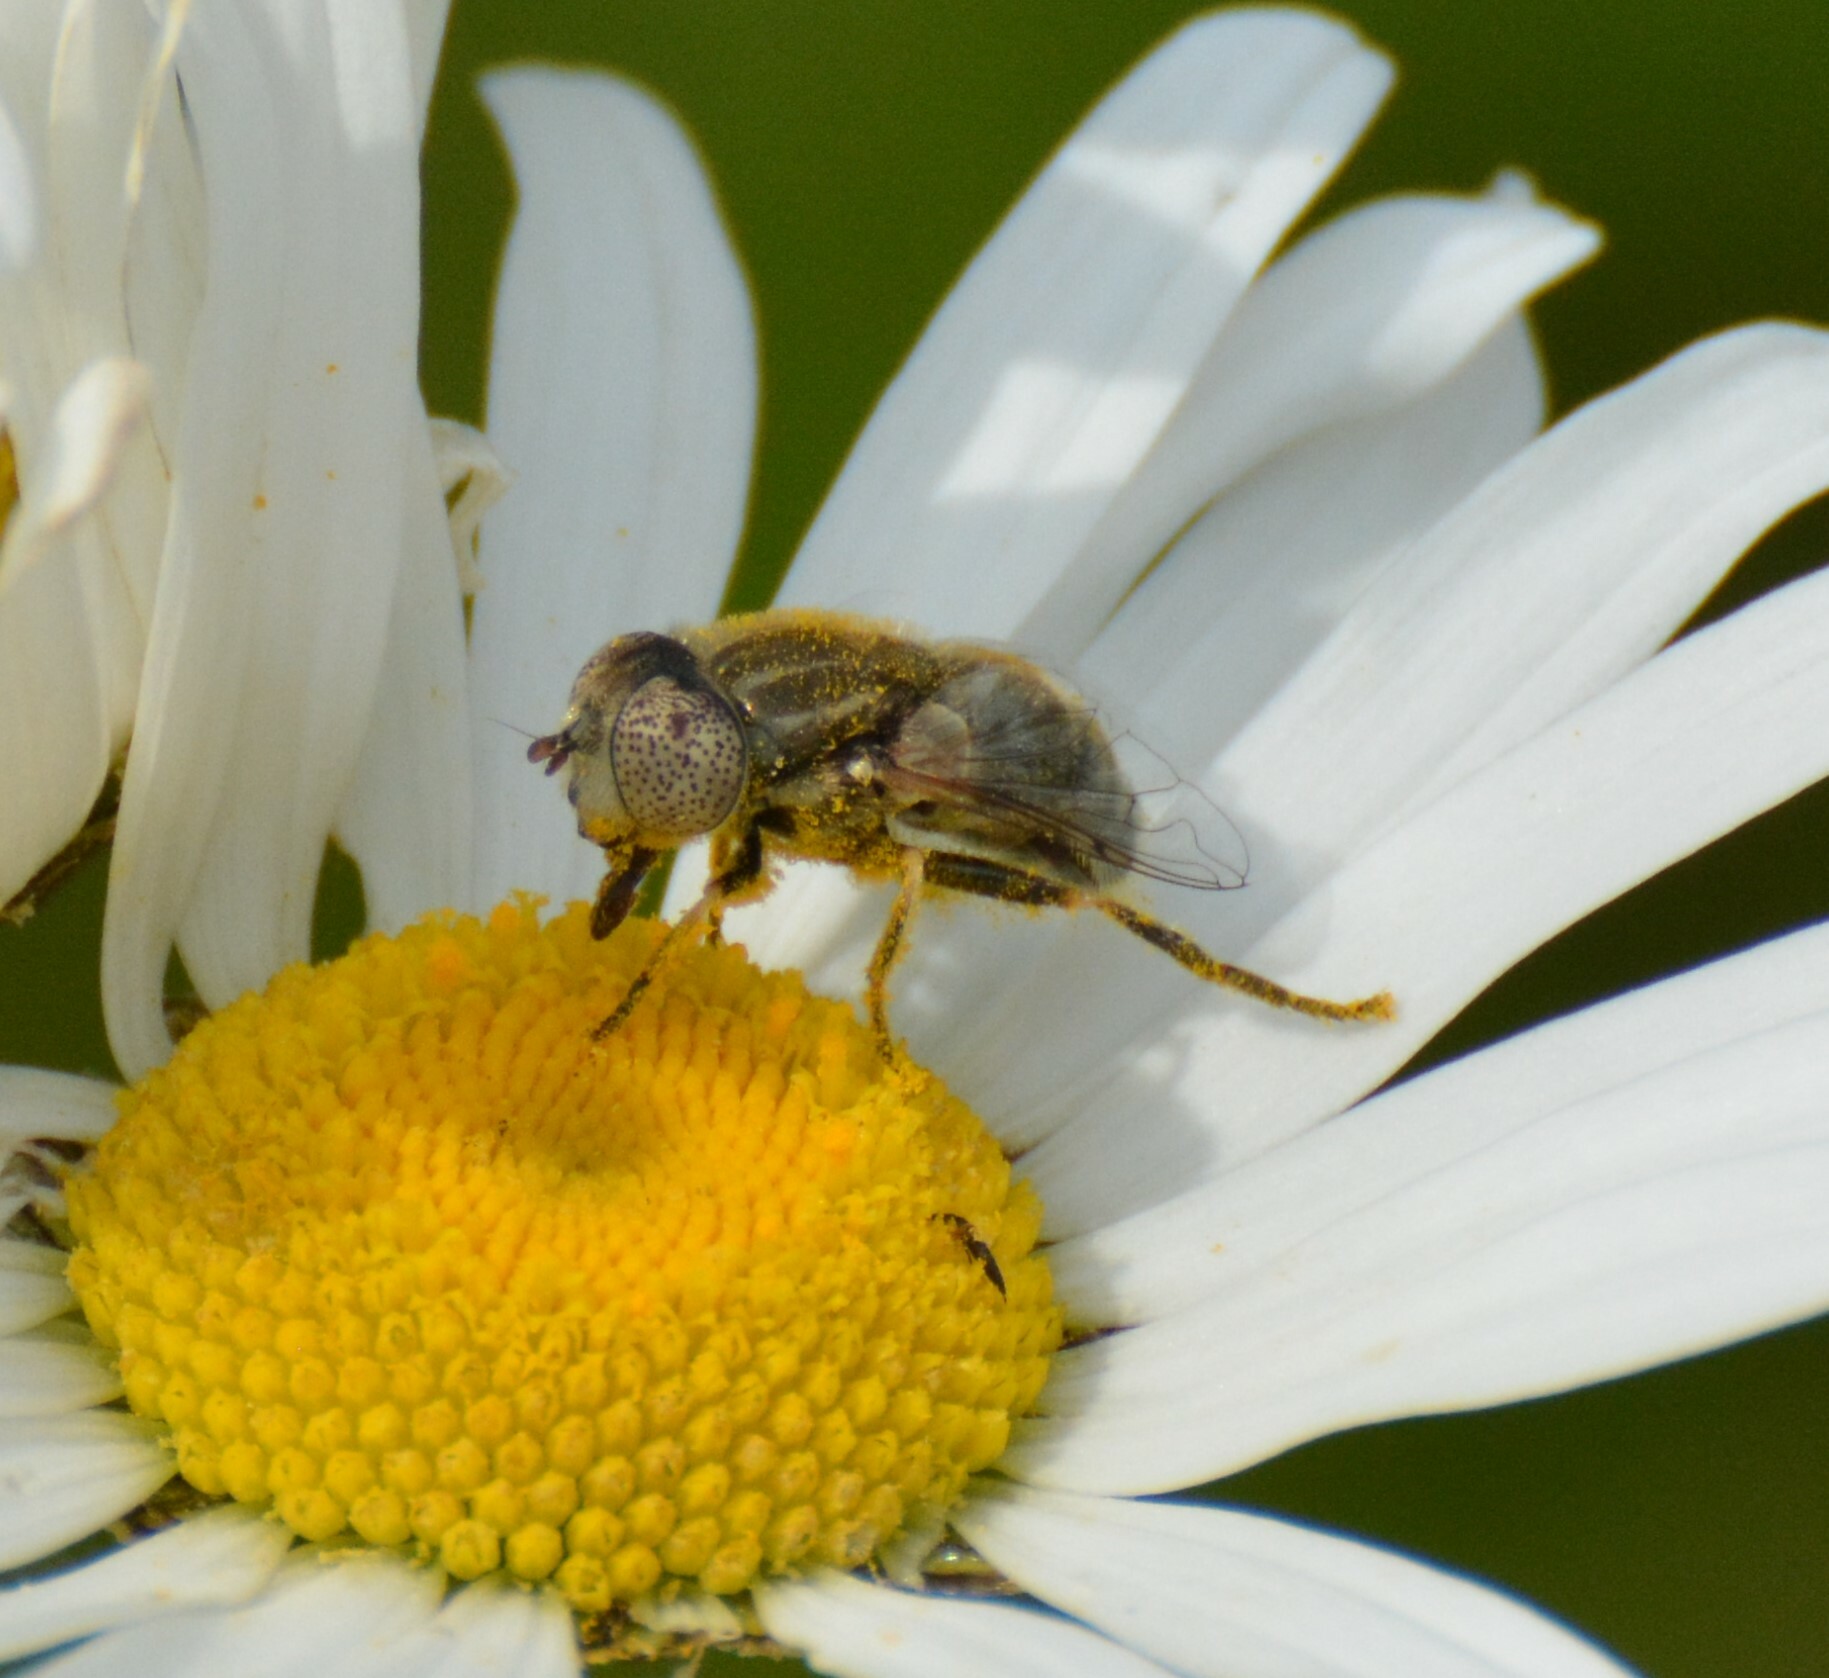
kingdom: Animalia
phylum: Arthropoda
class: Insecta
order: Diptera
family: Syrphidae
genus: Eristalinus
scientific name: Eristalinus aeneus
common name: Syrphid fly
